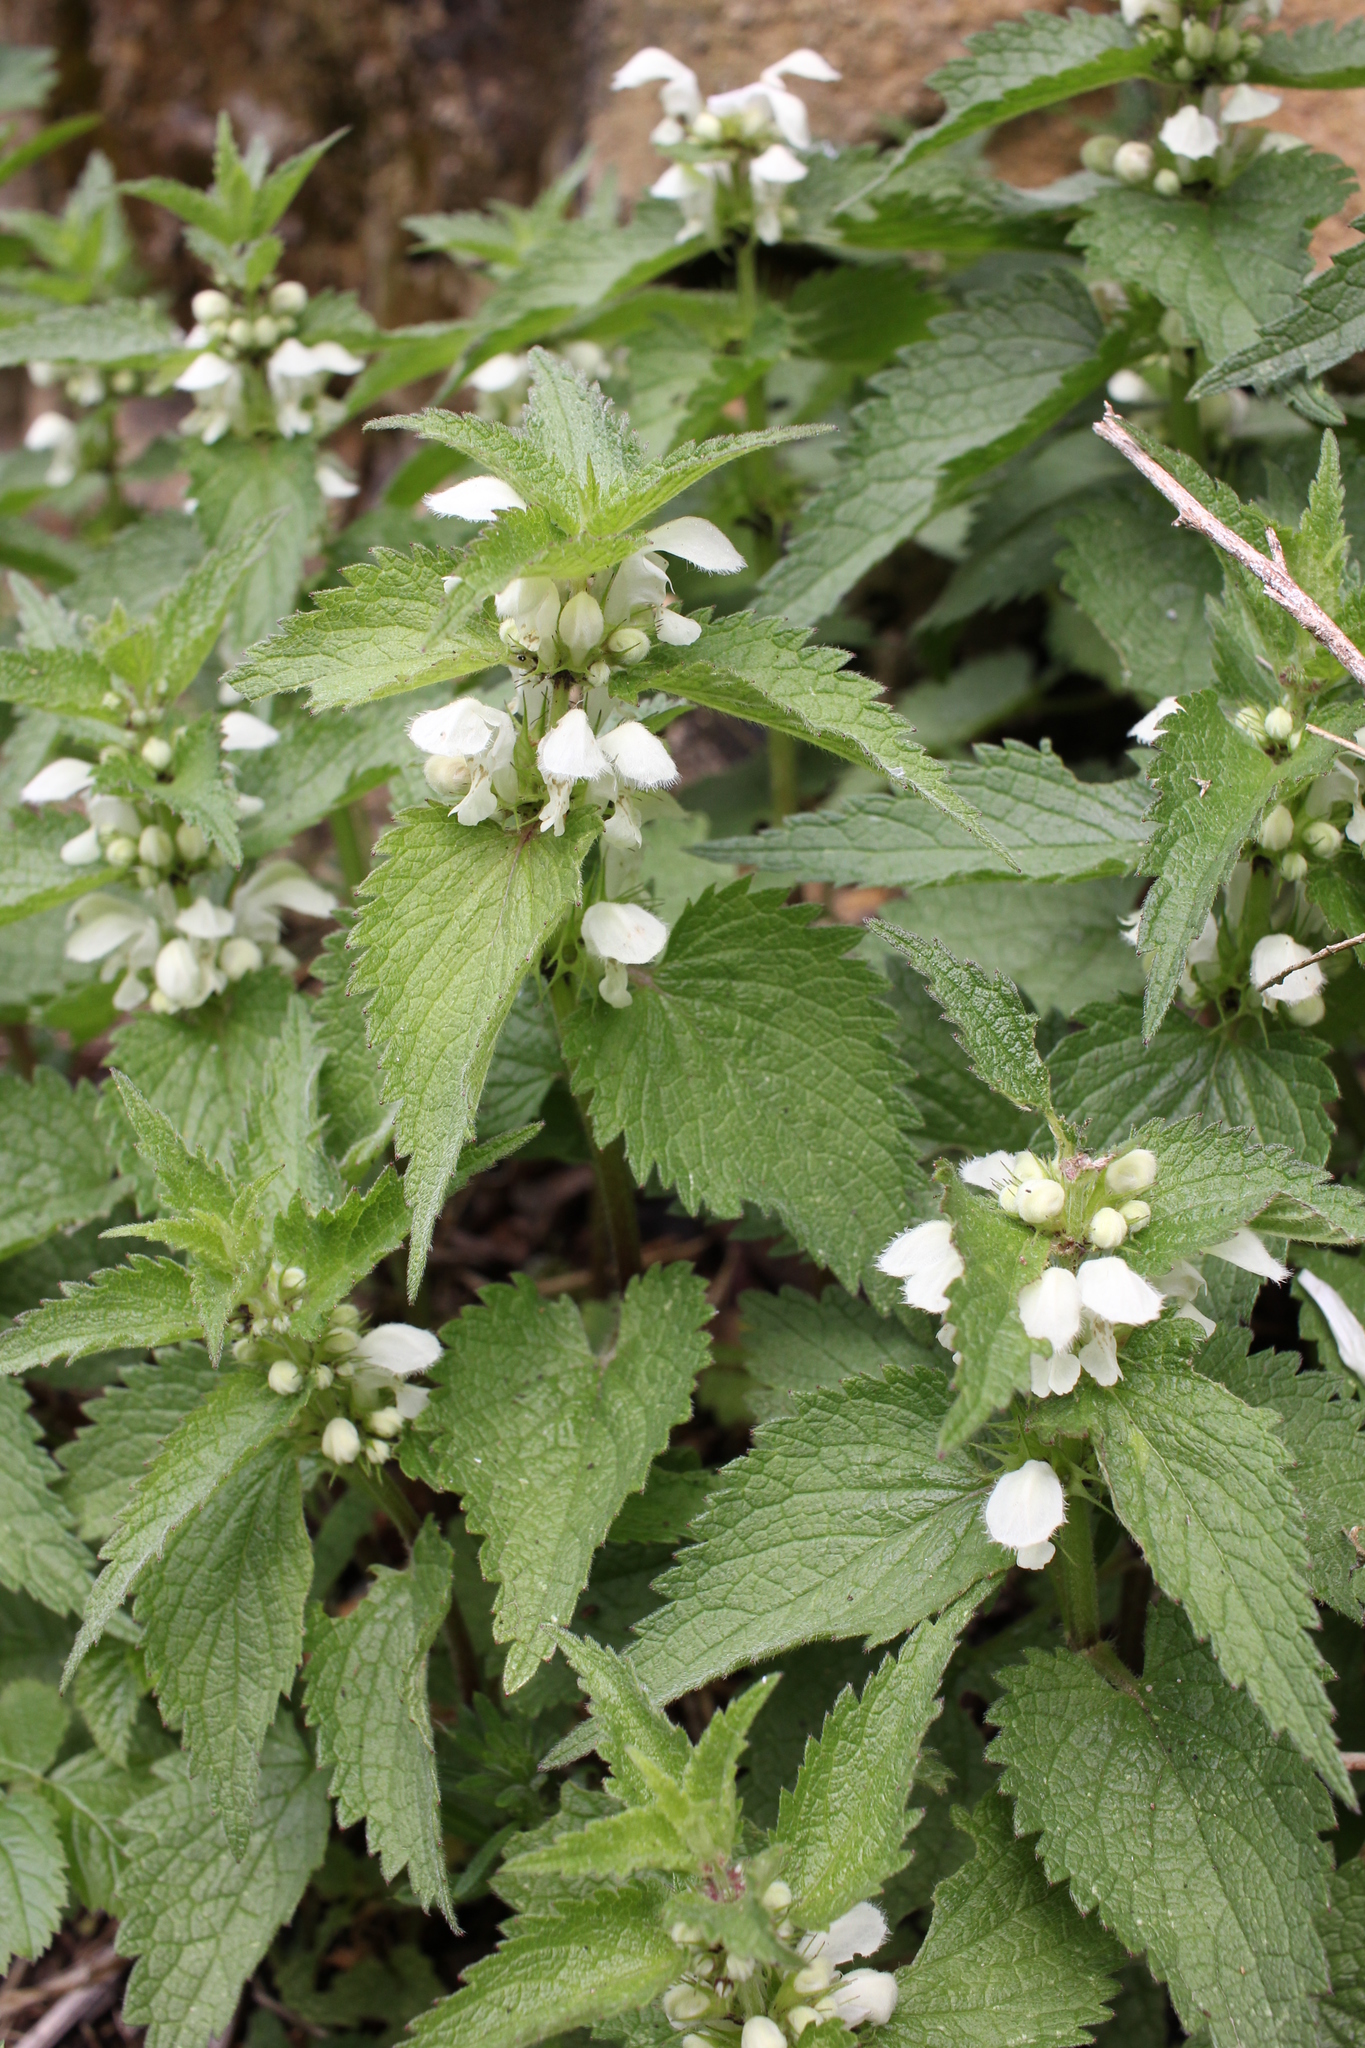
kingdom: Plantae
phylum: Tracheophyta
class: Magnoliopsida
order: Lamiales
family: Lamiaceae
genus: Lamium
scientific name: Lamium album
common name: White dead-nettle
